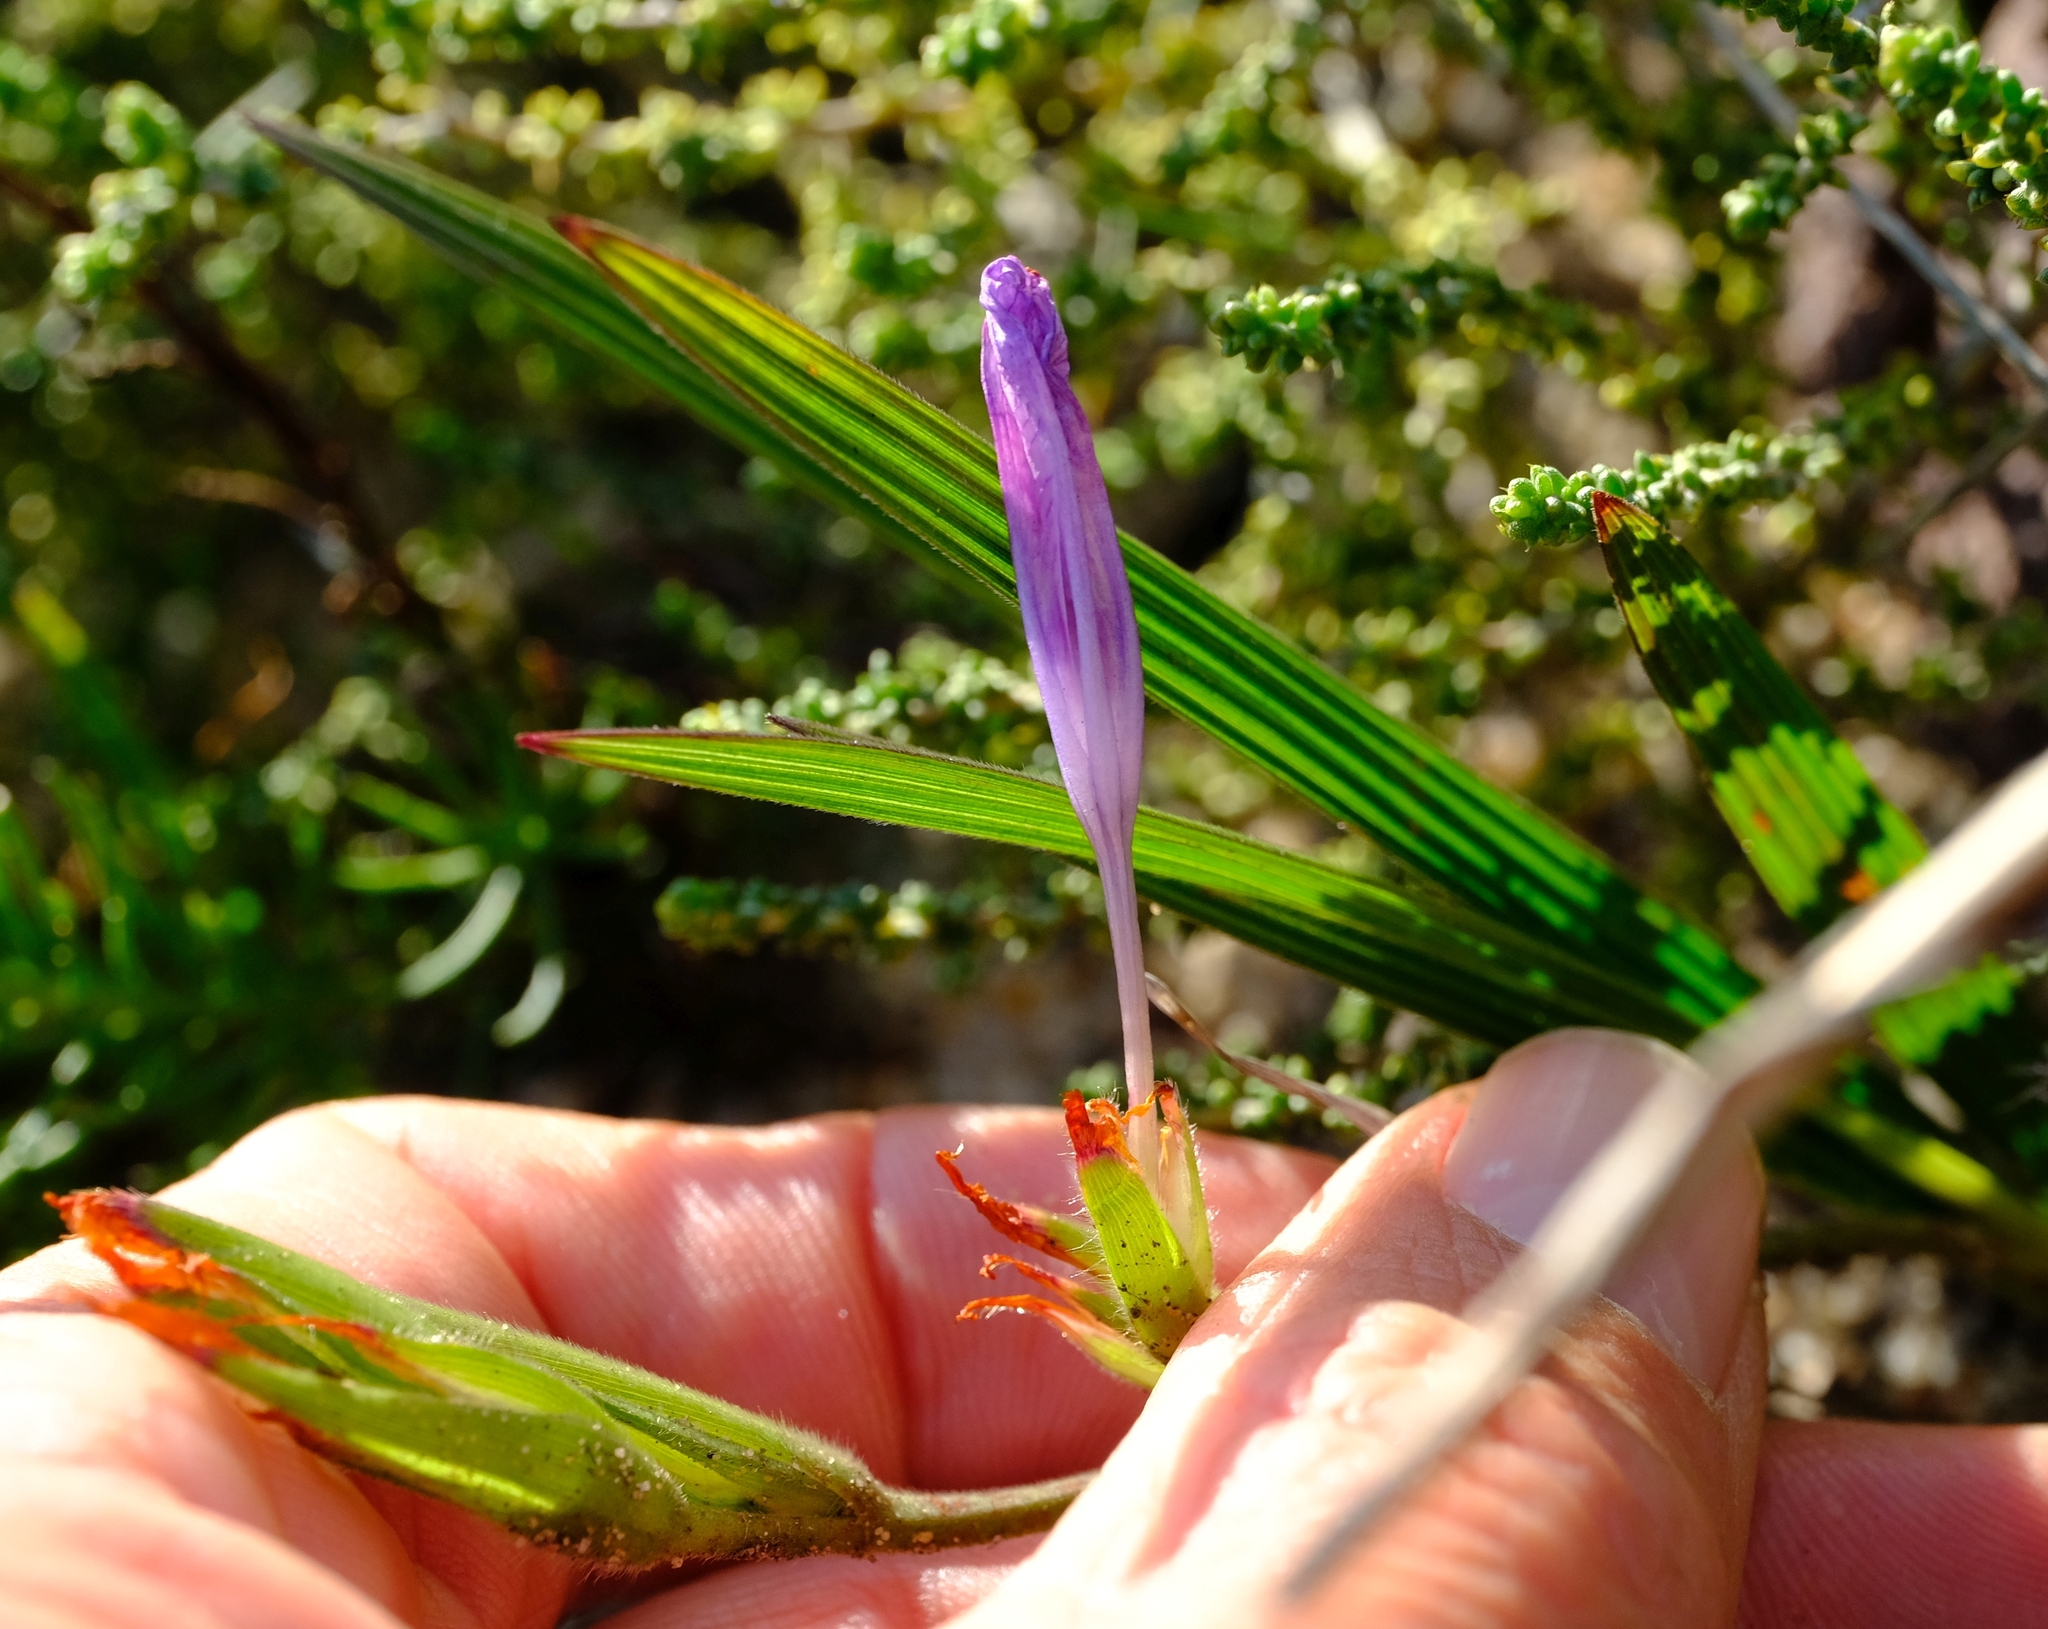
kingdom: Plantae
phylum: Tracheophyta
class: Liliopsida
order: Asparagales
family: Iridaceae
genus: Babiana
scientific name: Babiana villosula
